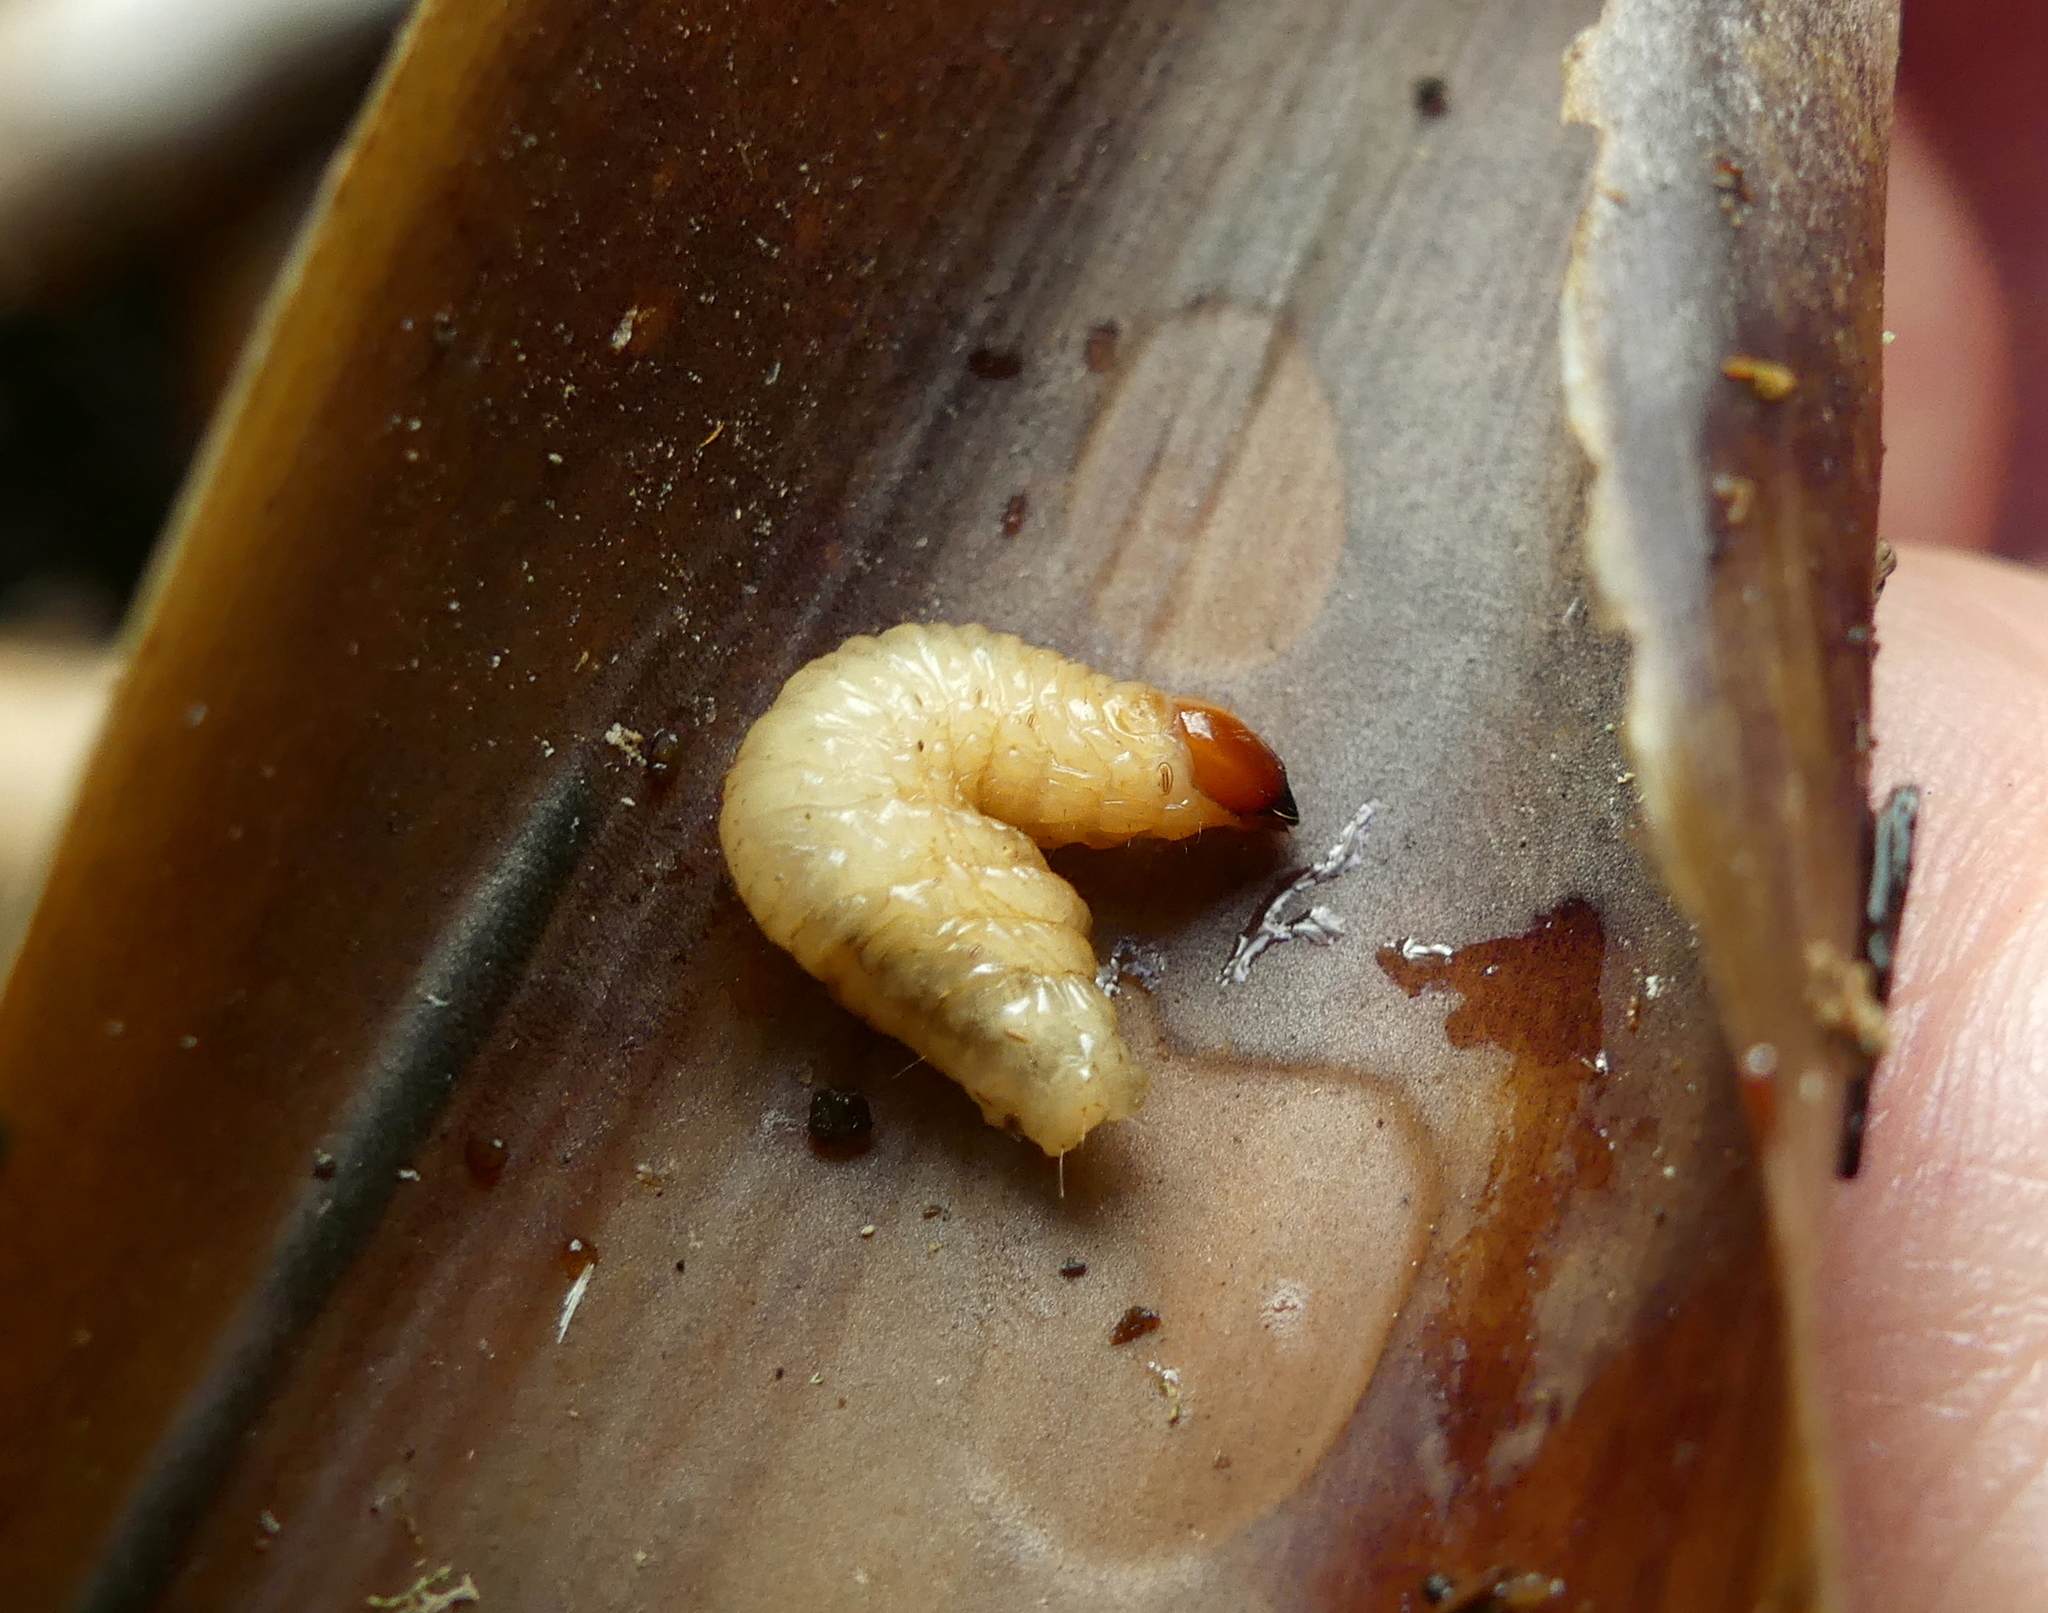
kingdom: Animalia
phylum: Arthropoda
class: Insecta
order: Coleoptera
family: Dryophthoridae
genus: Metamasius
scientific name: Metamasius callizona
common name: Mexican bromeliad weevil
